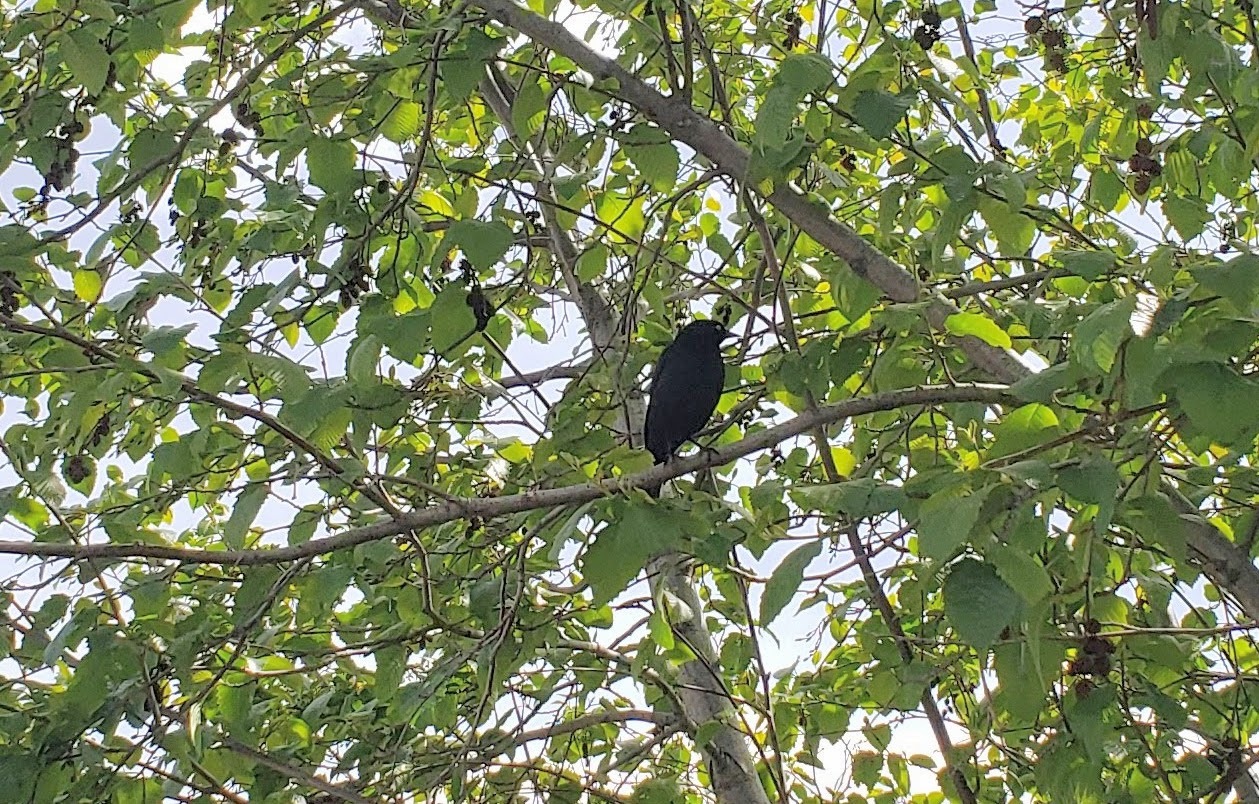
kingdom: Animalia
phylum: Chordata
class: Aves
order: Passeriformes
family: Icteridae
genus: Euphagus
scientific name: Euphagus cyanocephalus
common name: Brewer's blackbird
